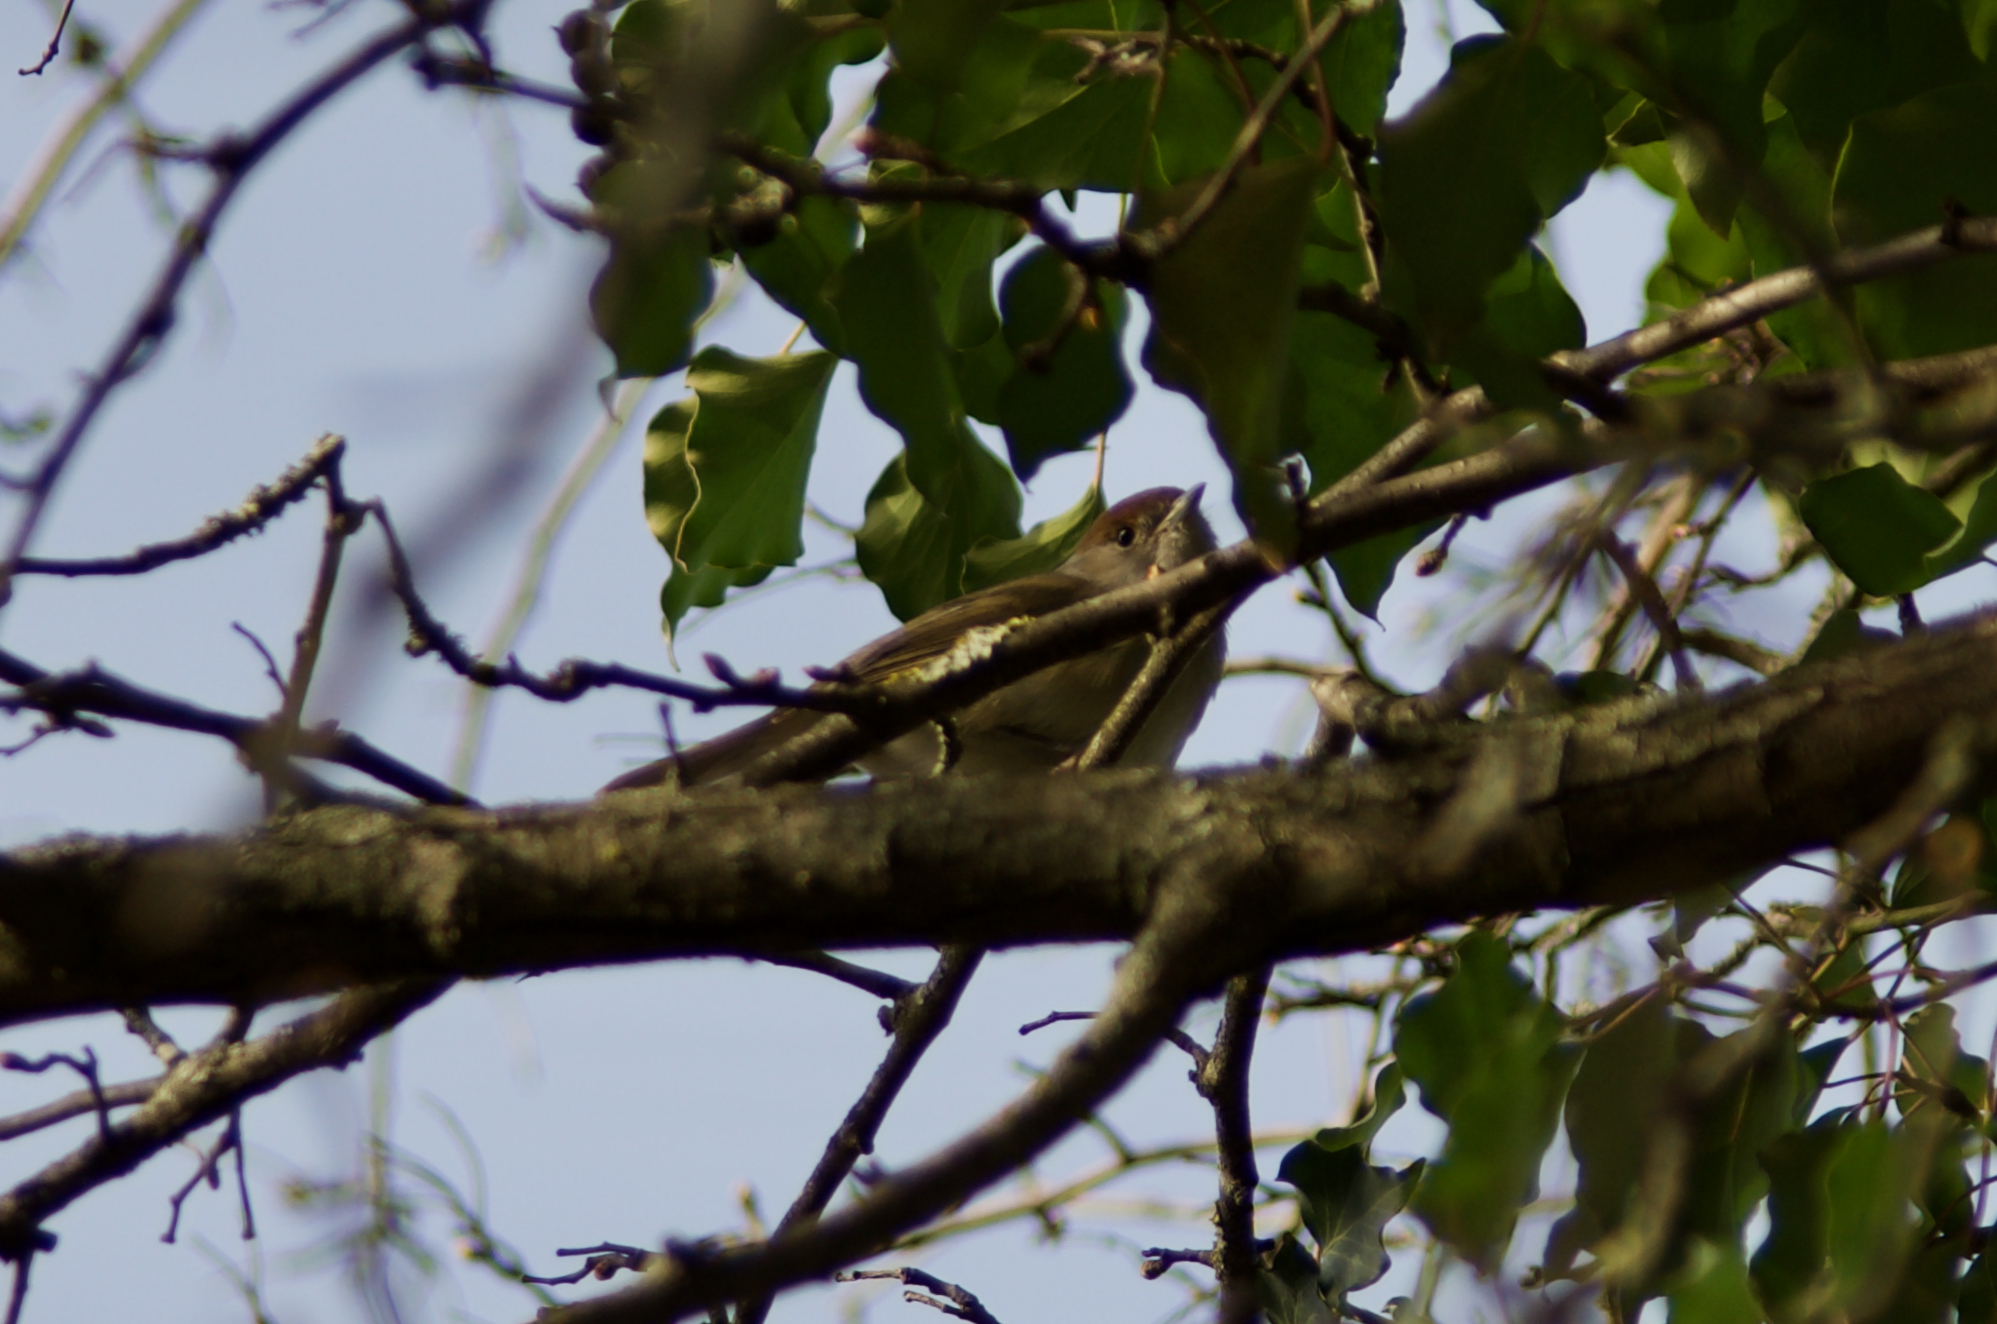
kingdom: Animalia
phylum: Chordata
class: Aves
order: Passeriformes
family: Sylviidae
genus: Sylvia
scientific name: Sylvia atricapilla
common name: Eurasian blackcap
